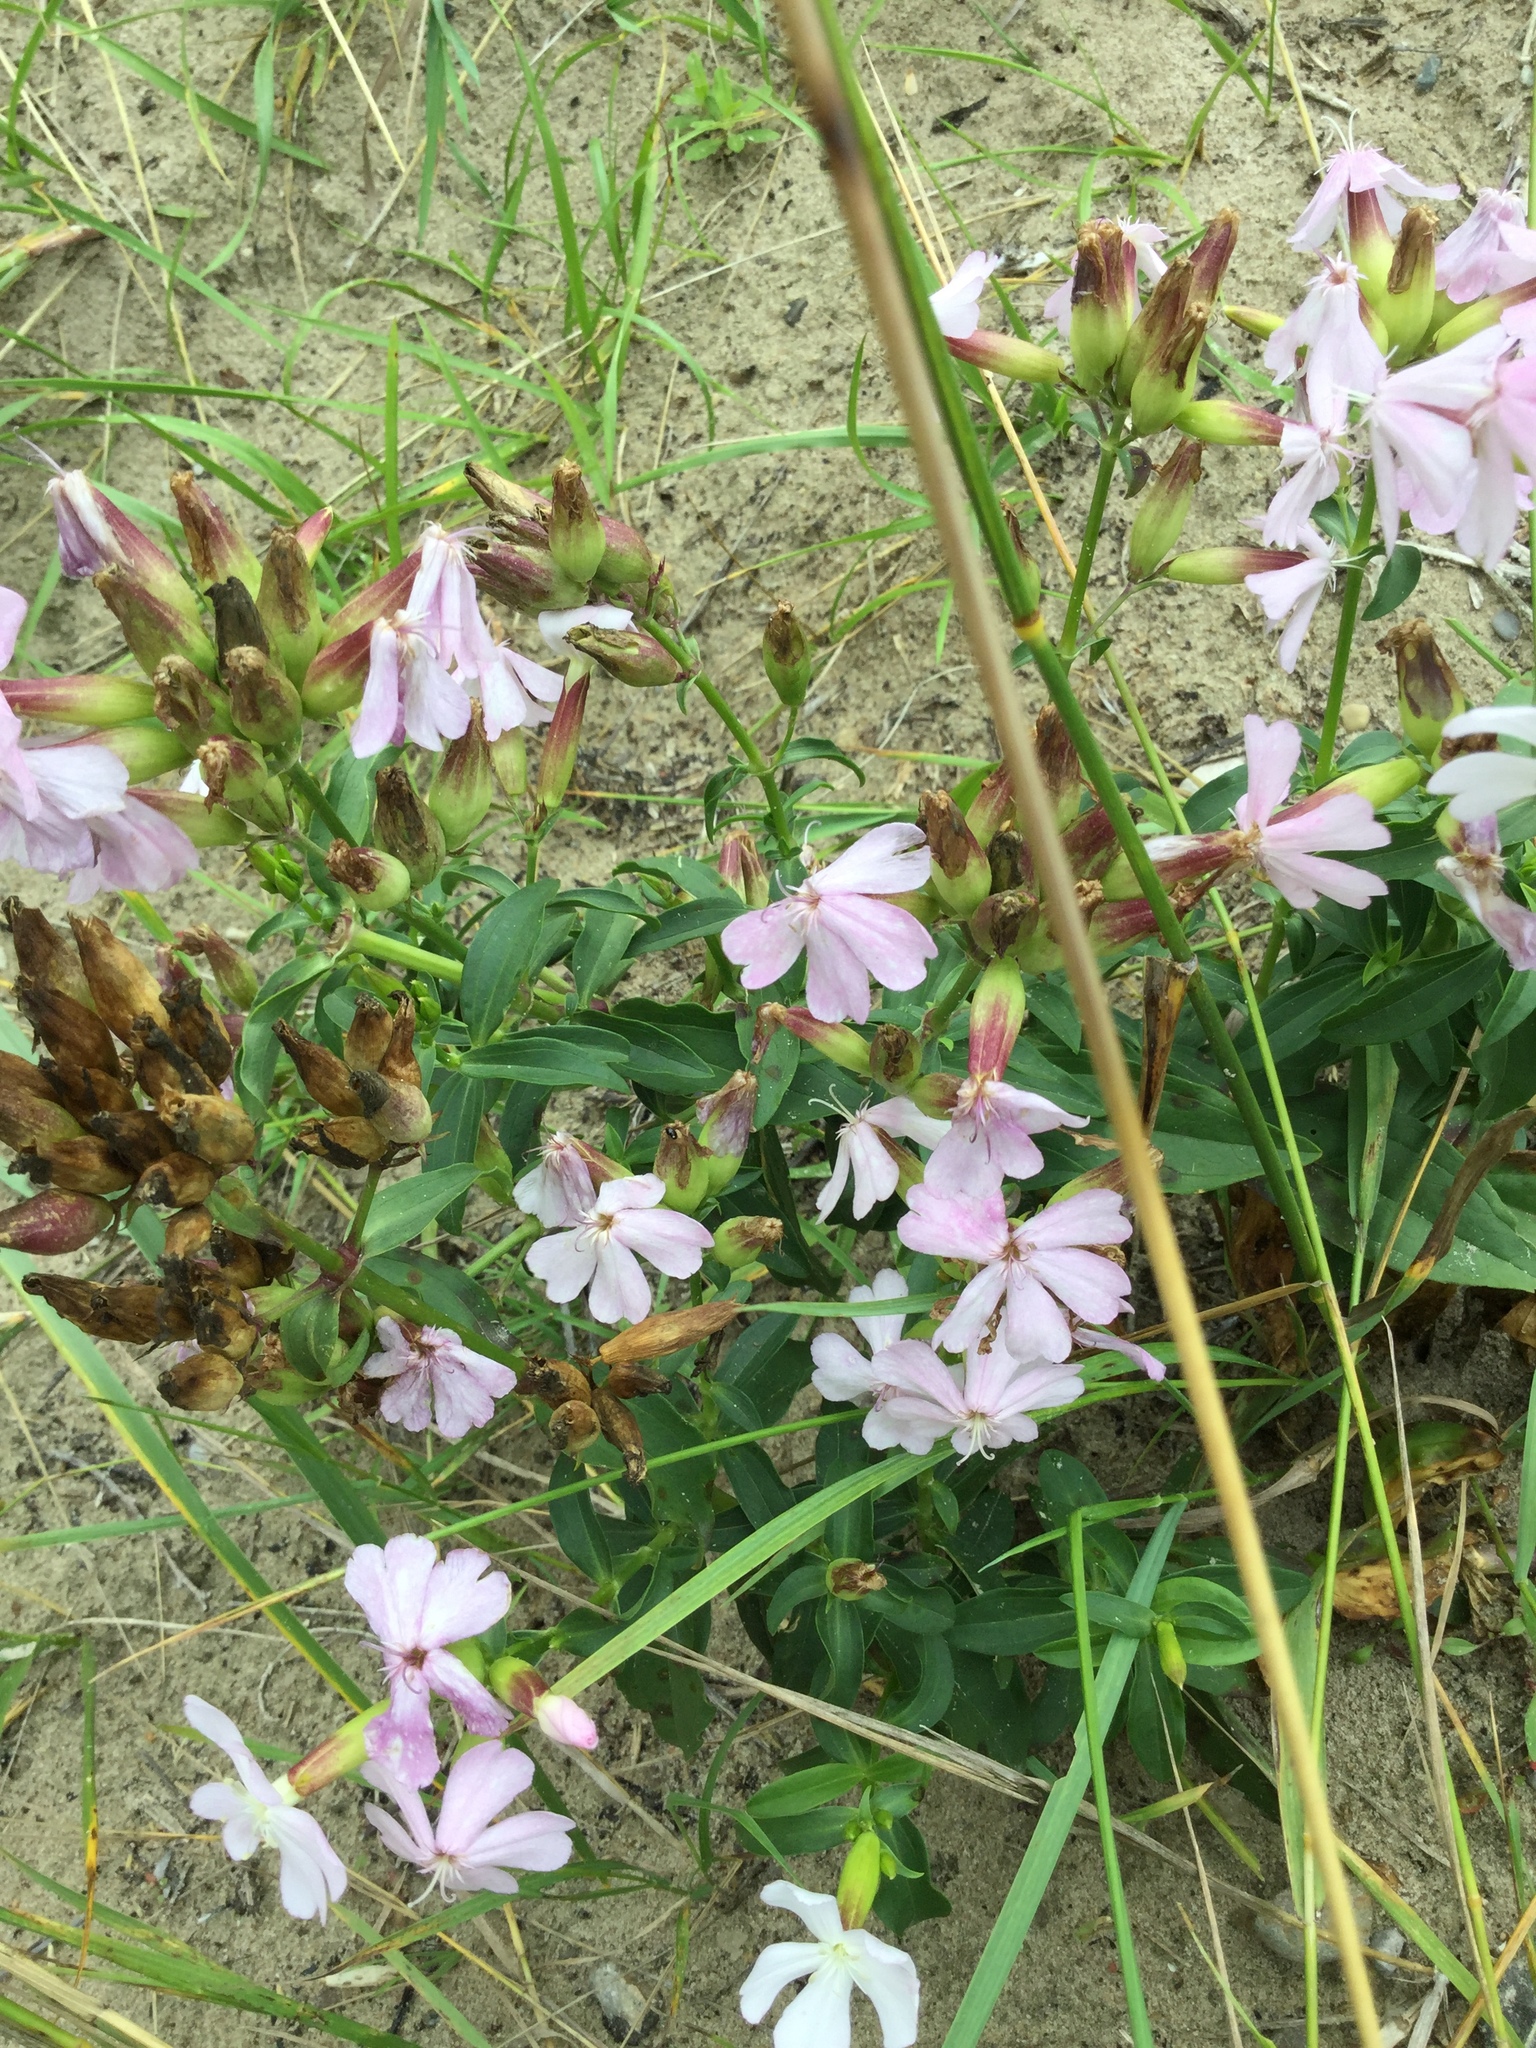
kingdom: Plantae
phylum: Tracheophyta
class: Magnoliopsida
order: Caryophyllales
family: Caryophyllaceae
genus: Saponaria
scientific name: Saponaria officinalis
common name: Soapwort
